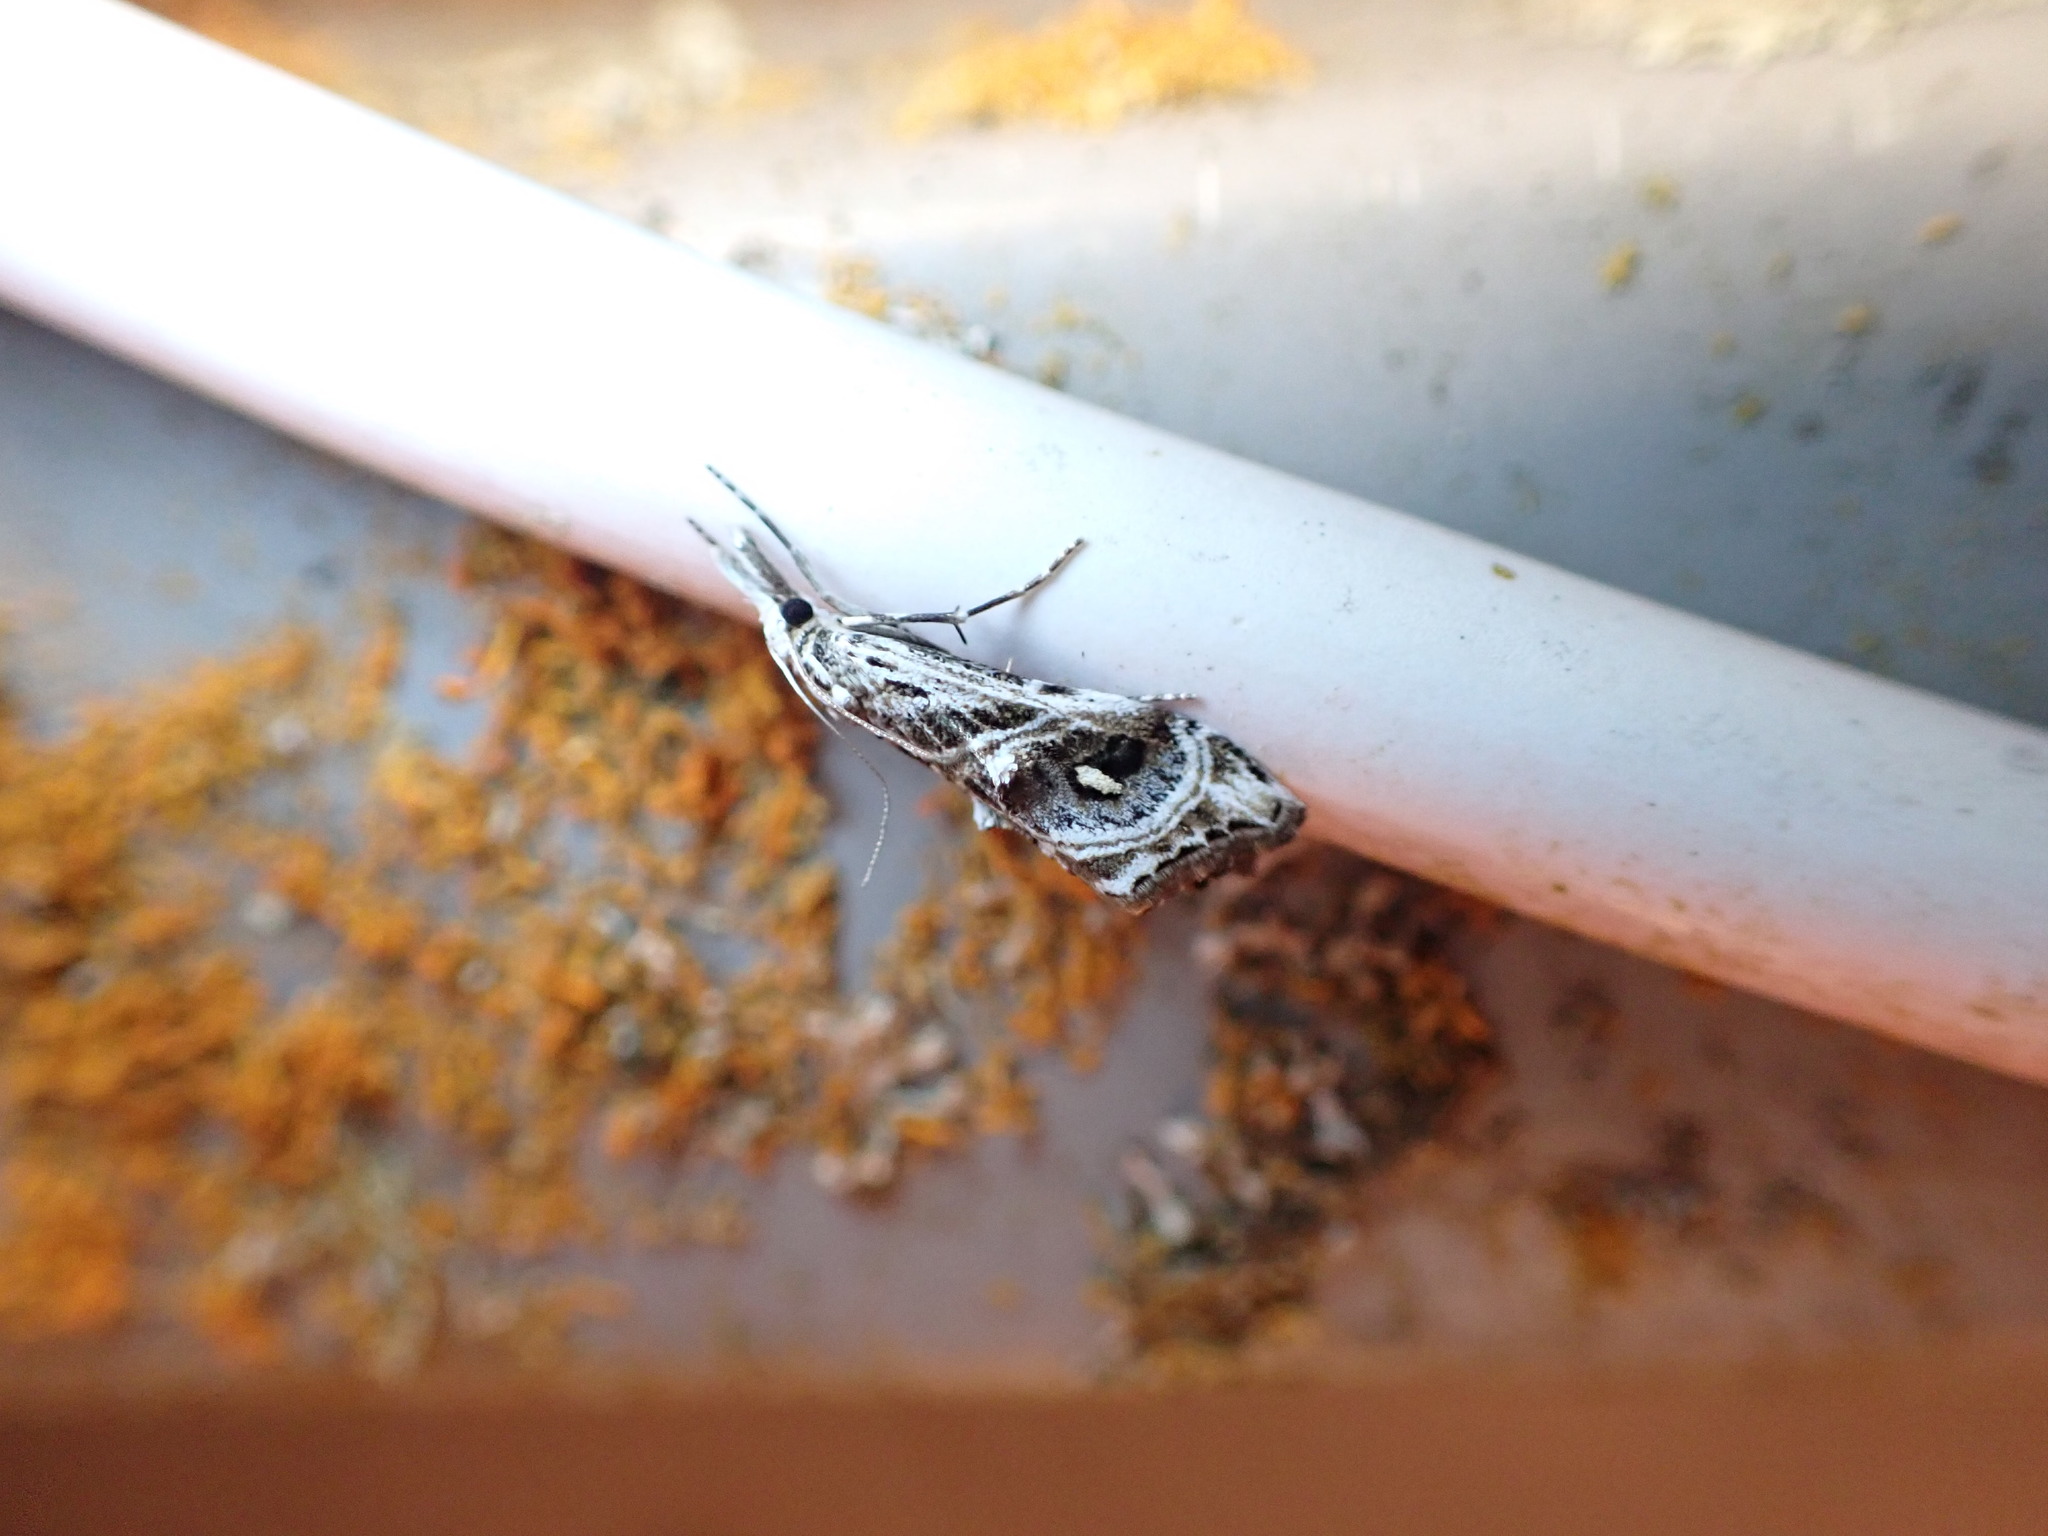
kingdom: Animalia
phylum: Arthropoda
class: Insecta
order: Lepidoptera
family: Crambidae
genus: Gadira
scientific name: Gadira acerella
